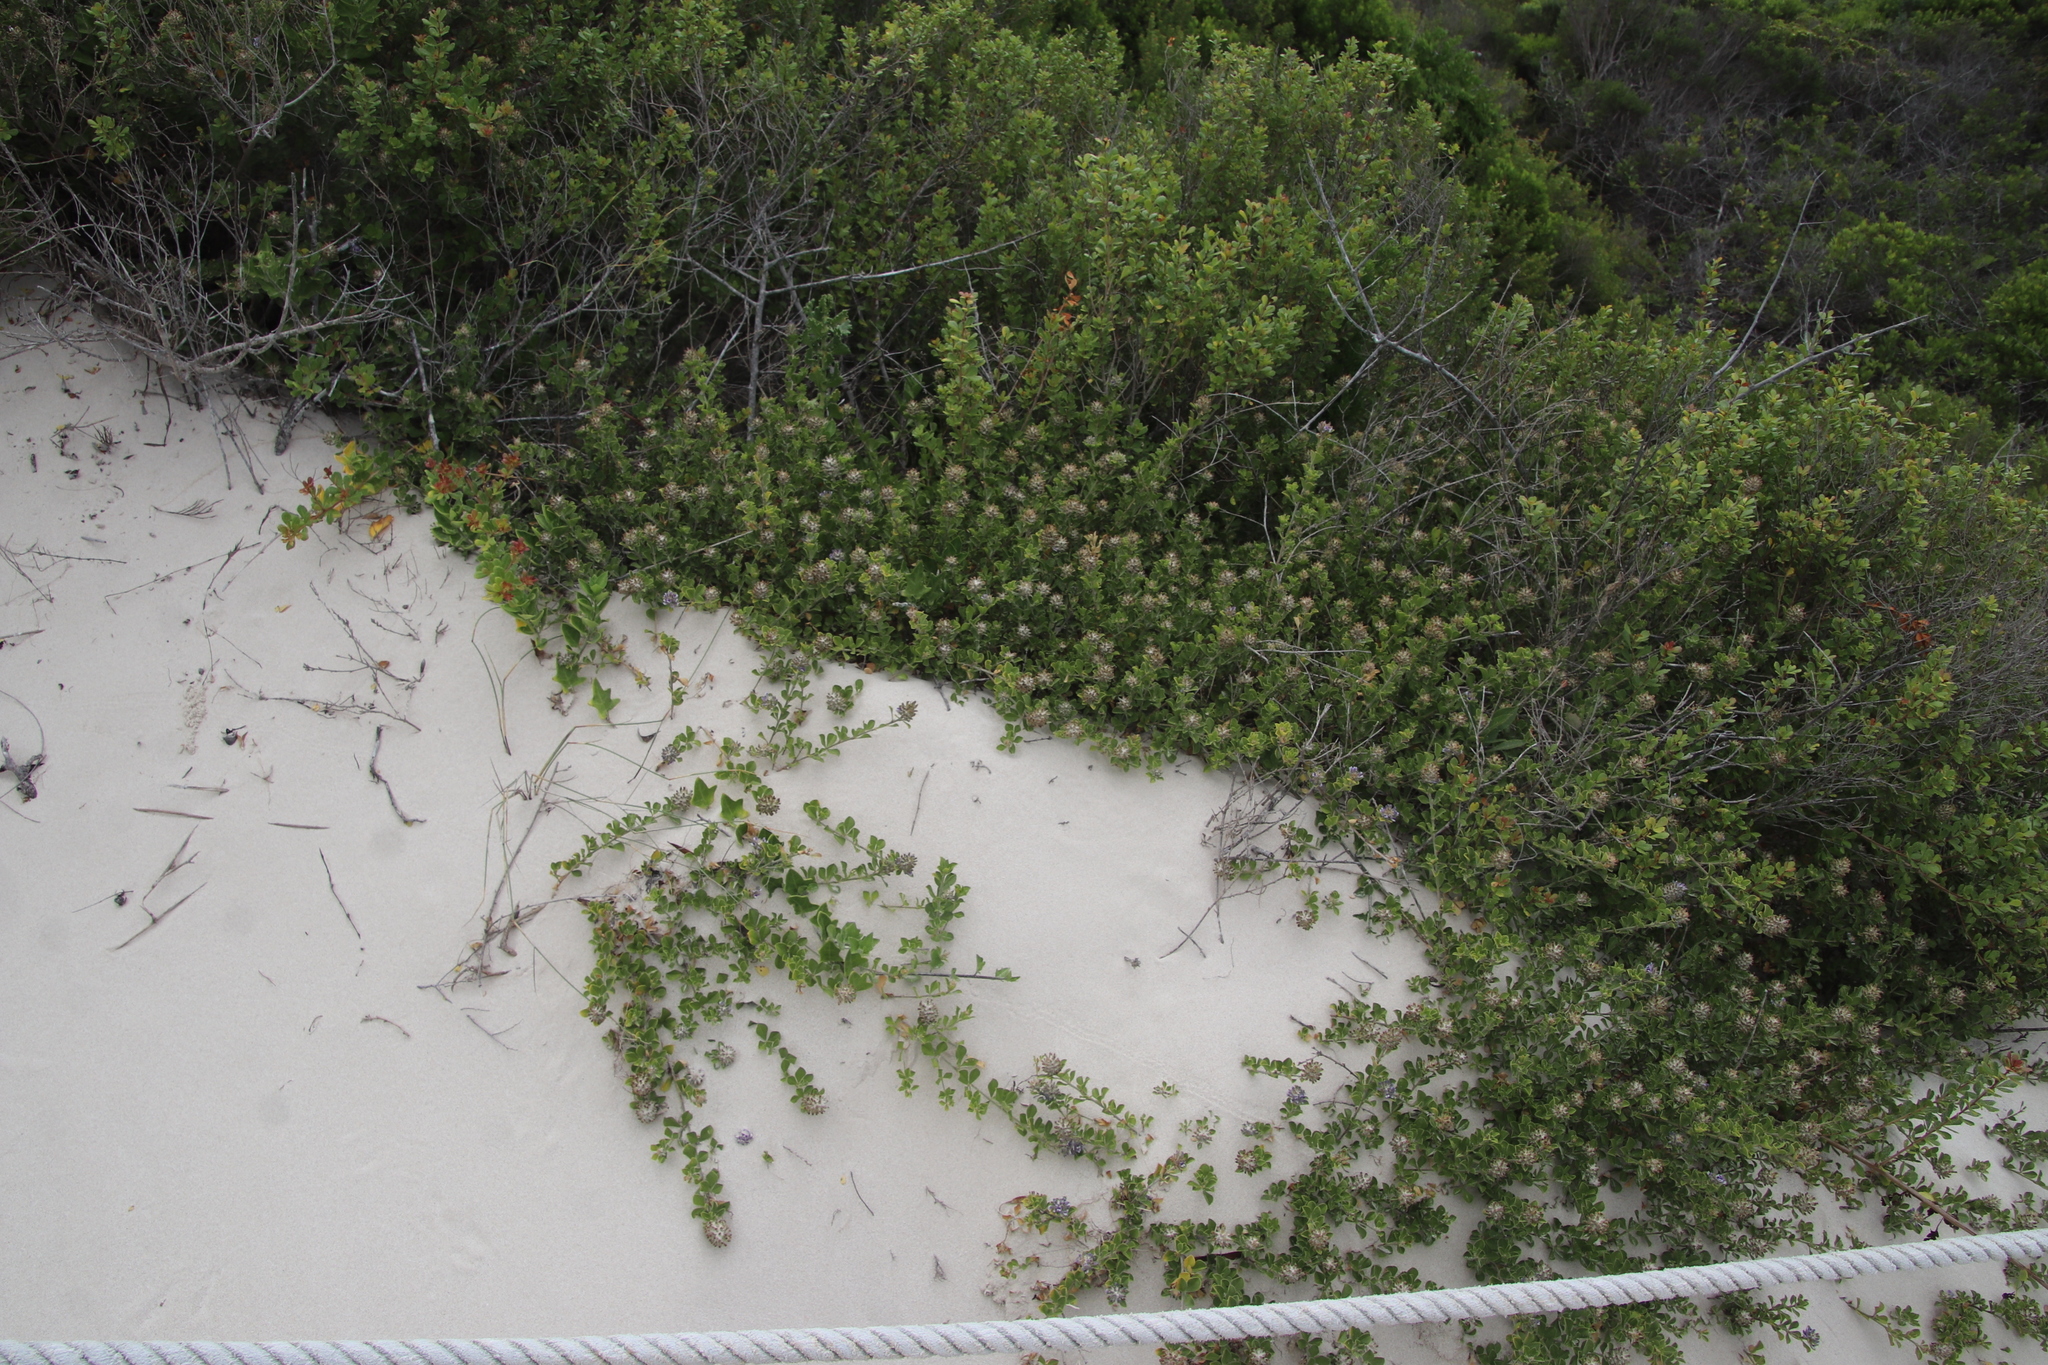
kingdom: Plantae
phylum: Tracheophyta
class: Magnoliopsida
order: Fabales
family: Fabaceae
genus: Psoralea
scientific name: Psoralea bracteolata
